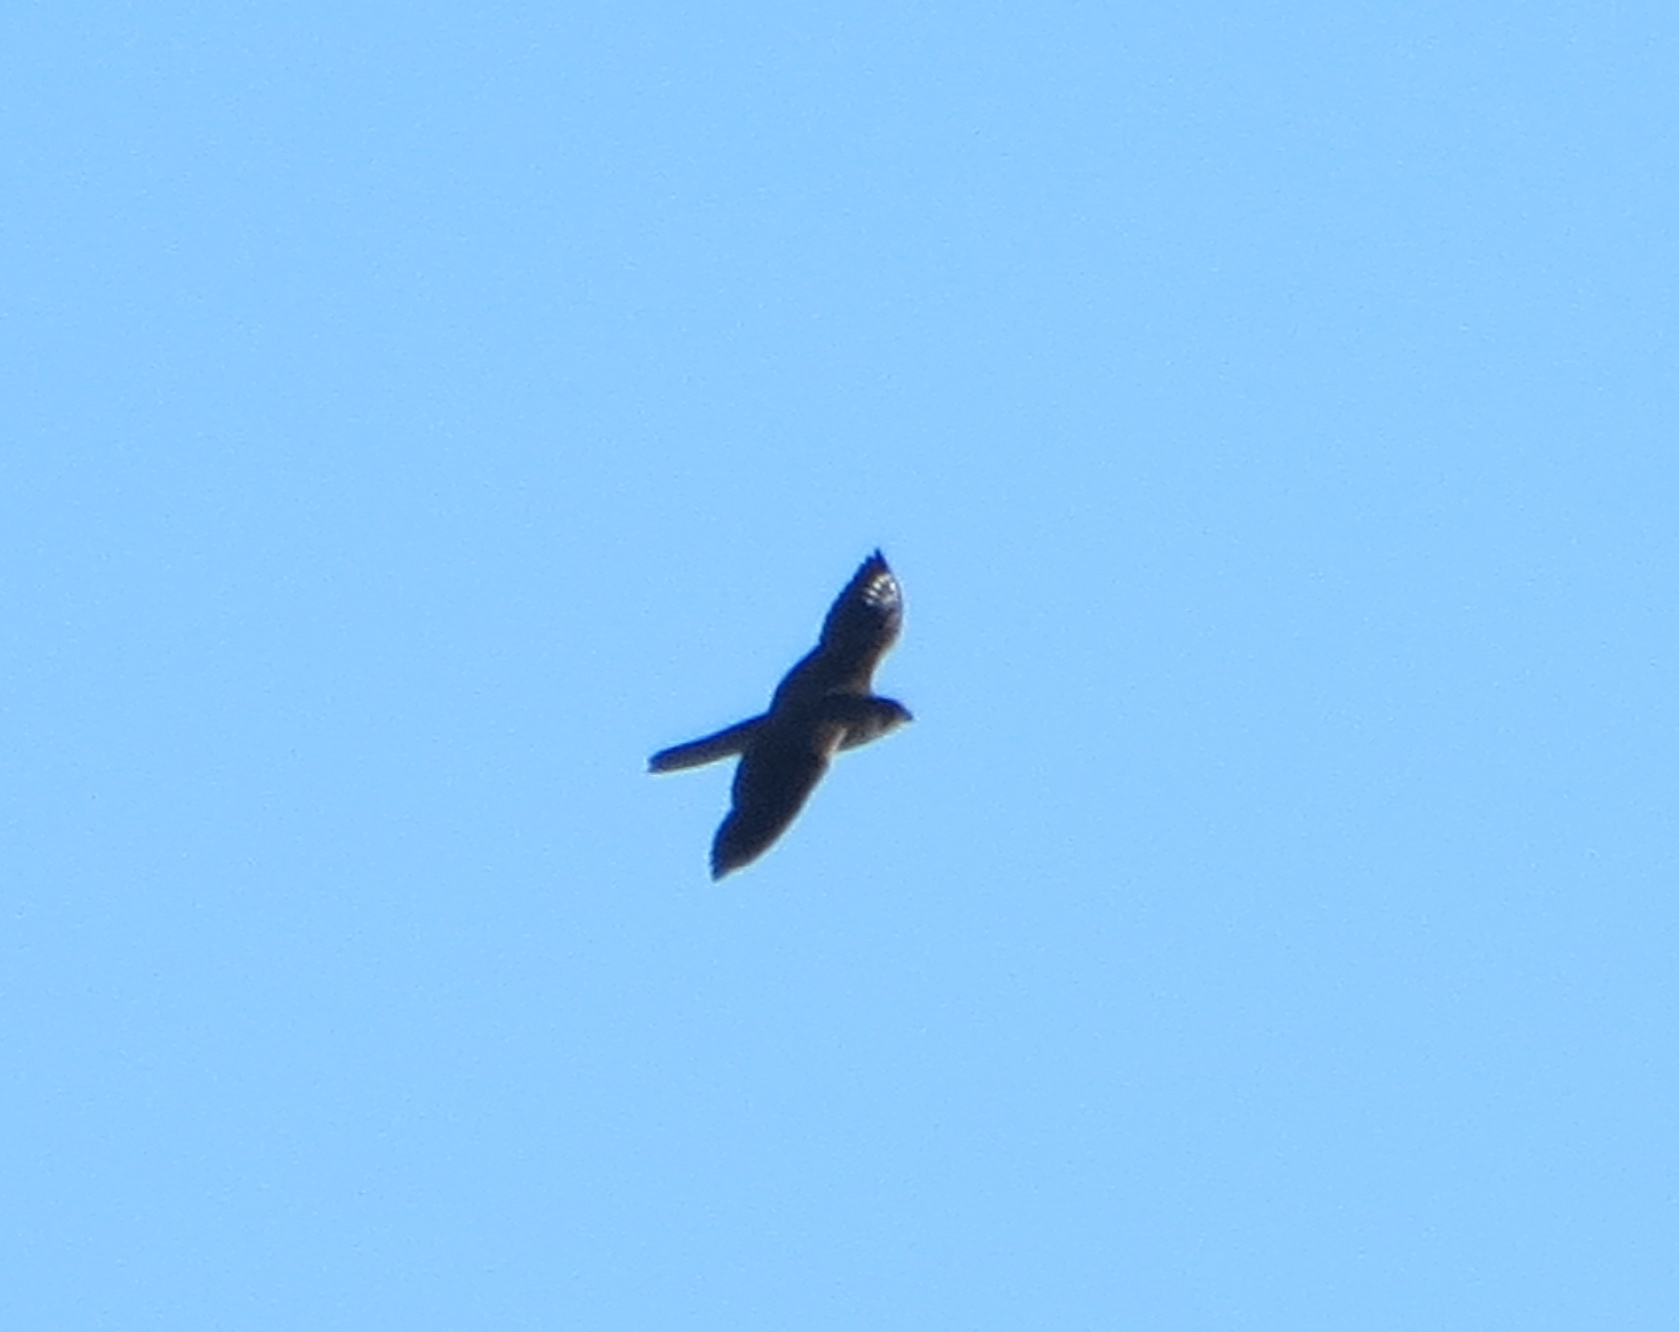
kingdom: Animalia
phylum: Chordata
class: Aves
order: Falconiformes
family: Falconidae
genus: Falco
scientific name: Falco peregrinus
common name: Peregrine falcon
